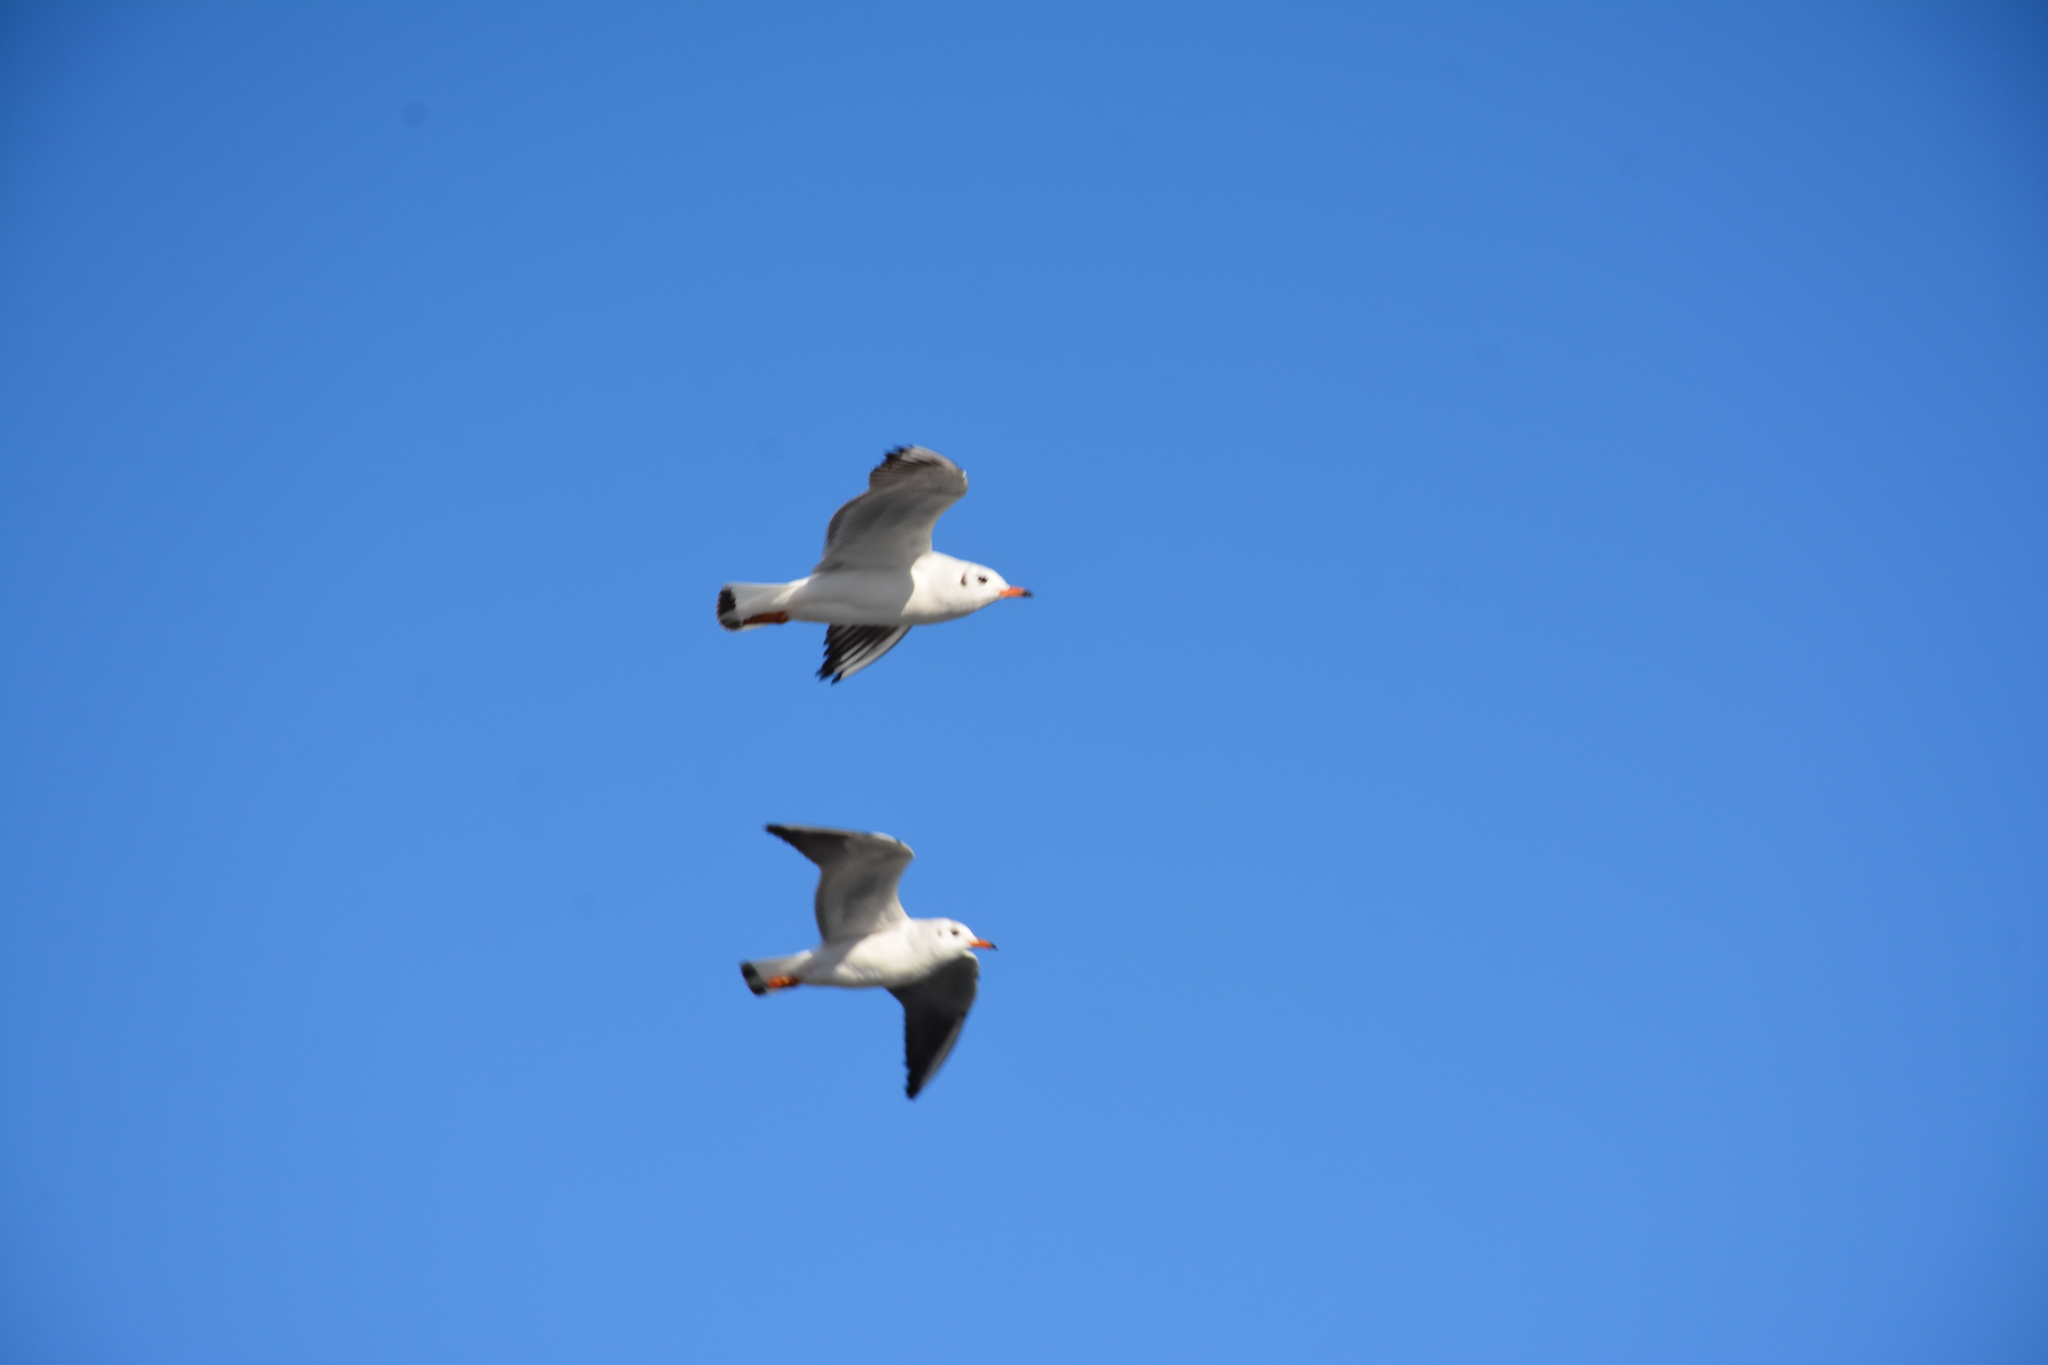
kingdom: Animalia
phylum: Chordata
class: Aves
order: Charadriiformes
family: Laridae
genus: Chroicocephalus
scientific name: Chroicocephalus ridibundus
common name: Black-headed gull
